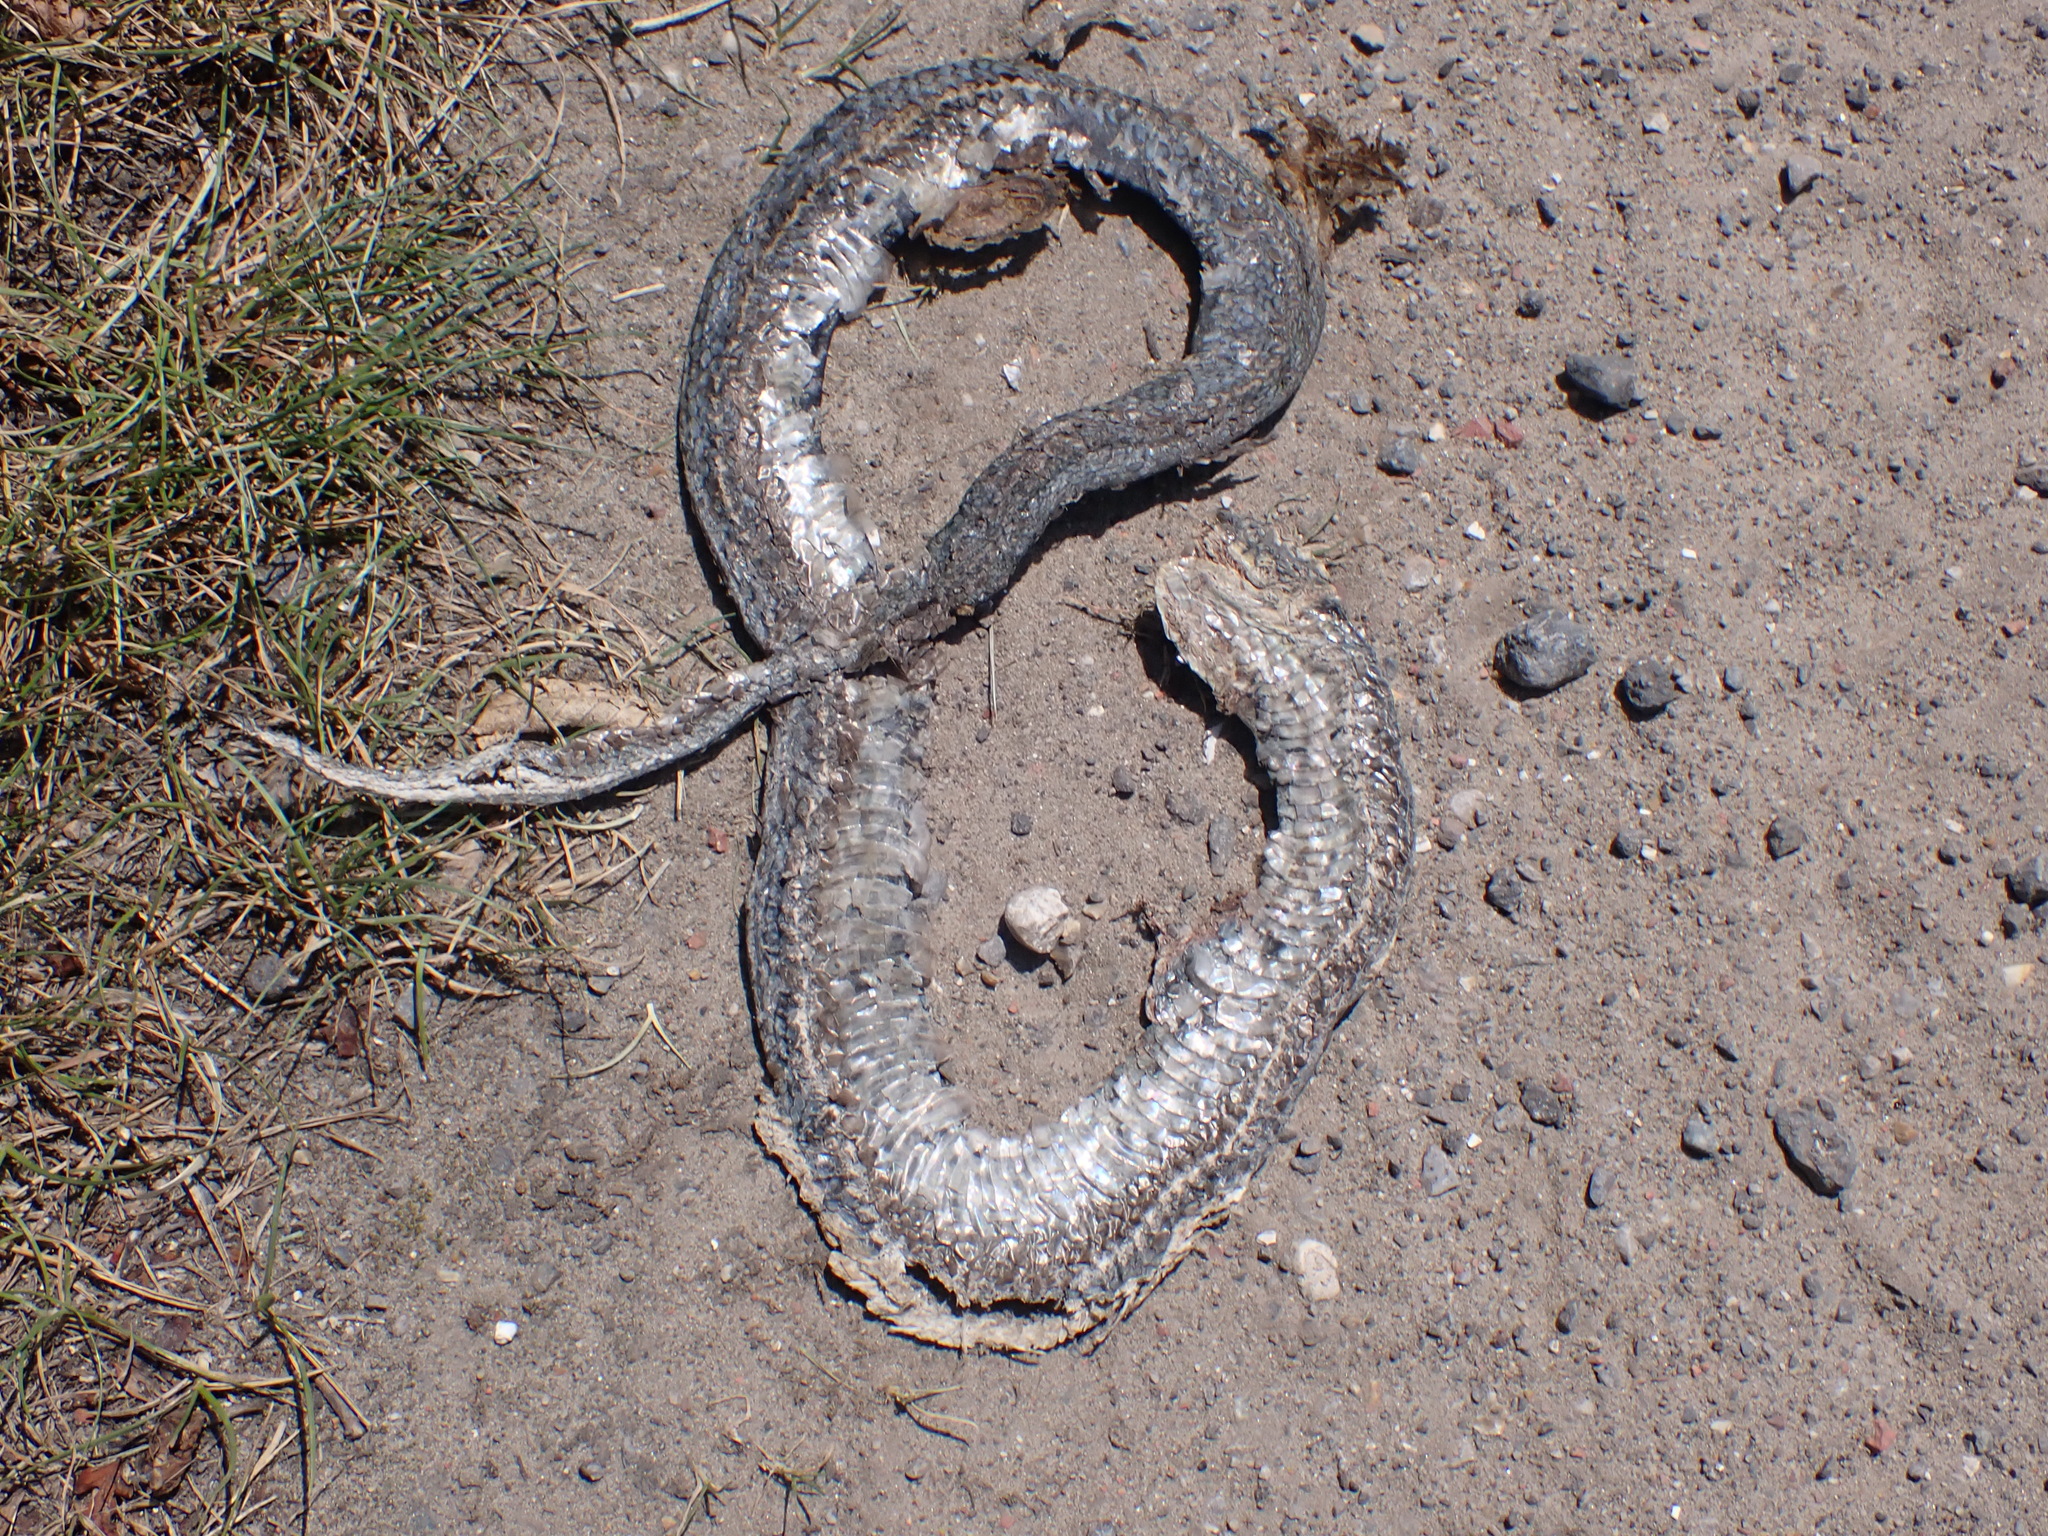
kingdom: Animalia
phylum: Chordata
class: Squamata
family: Colubridae
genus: Natrix
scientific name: Natrix helvetica
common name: Banded grass snake
